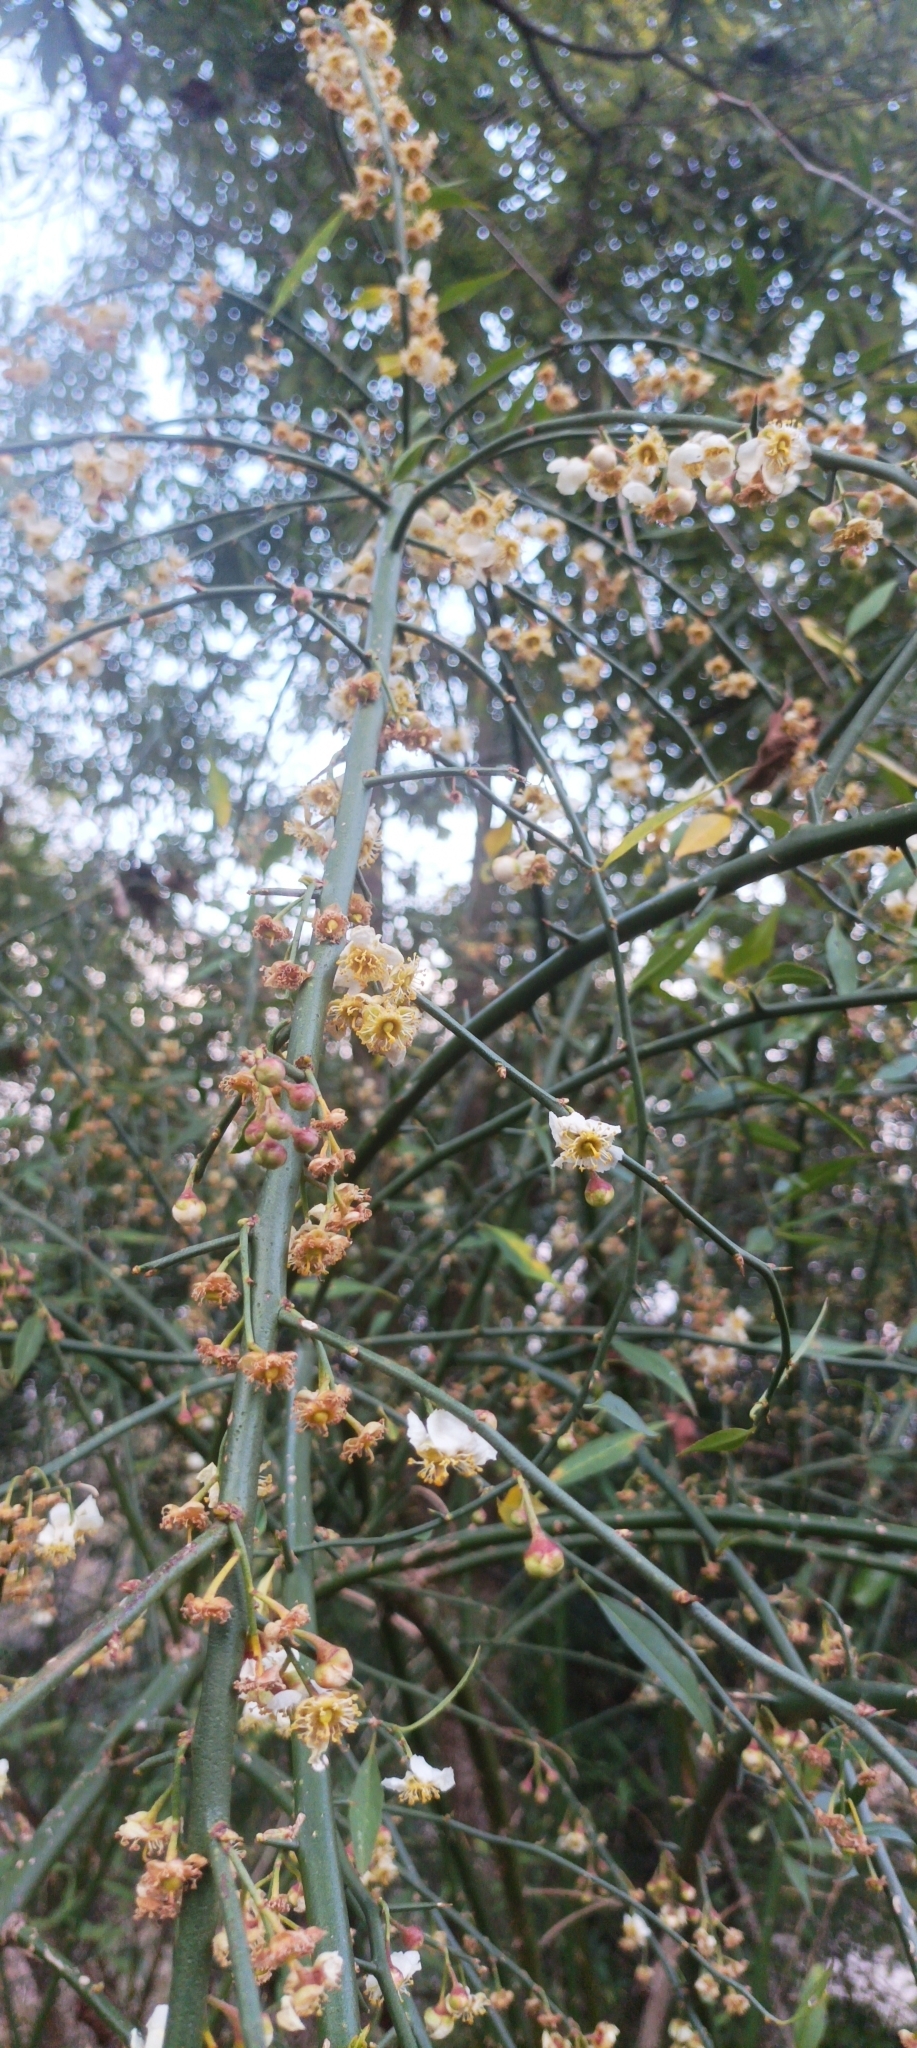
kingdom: Plantae
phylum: Tracheophyta
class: Magnoliopsida
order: Rosales
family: Rosaceae
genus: Prinsepia
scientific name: Prinsepia utilis
